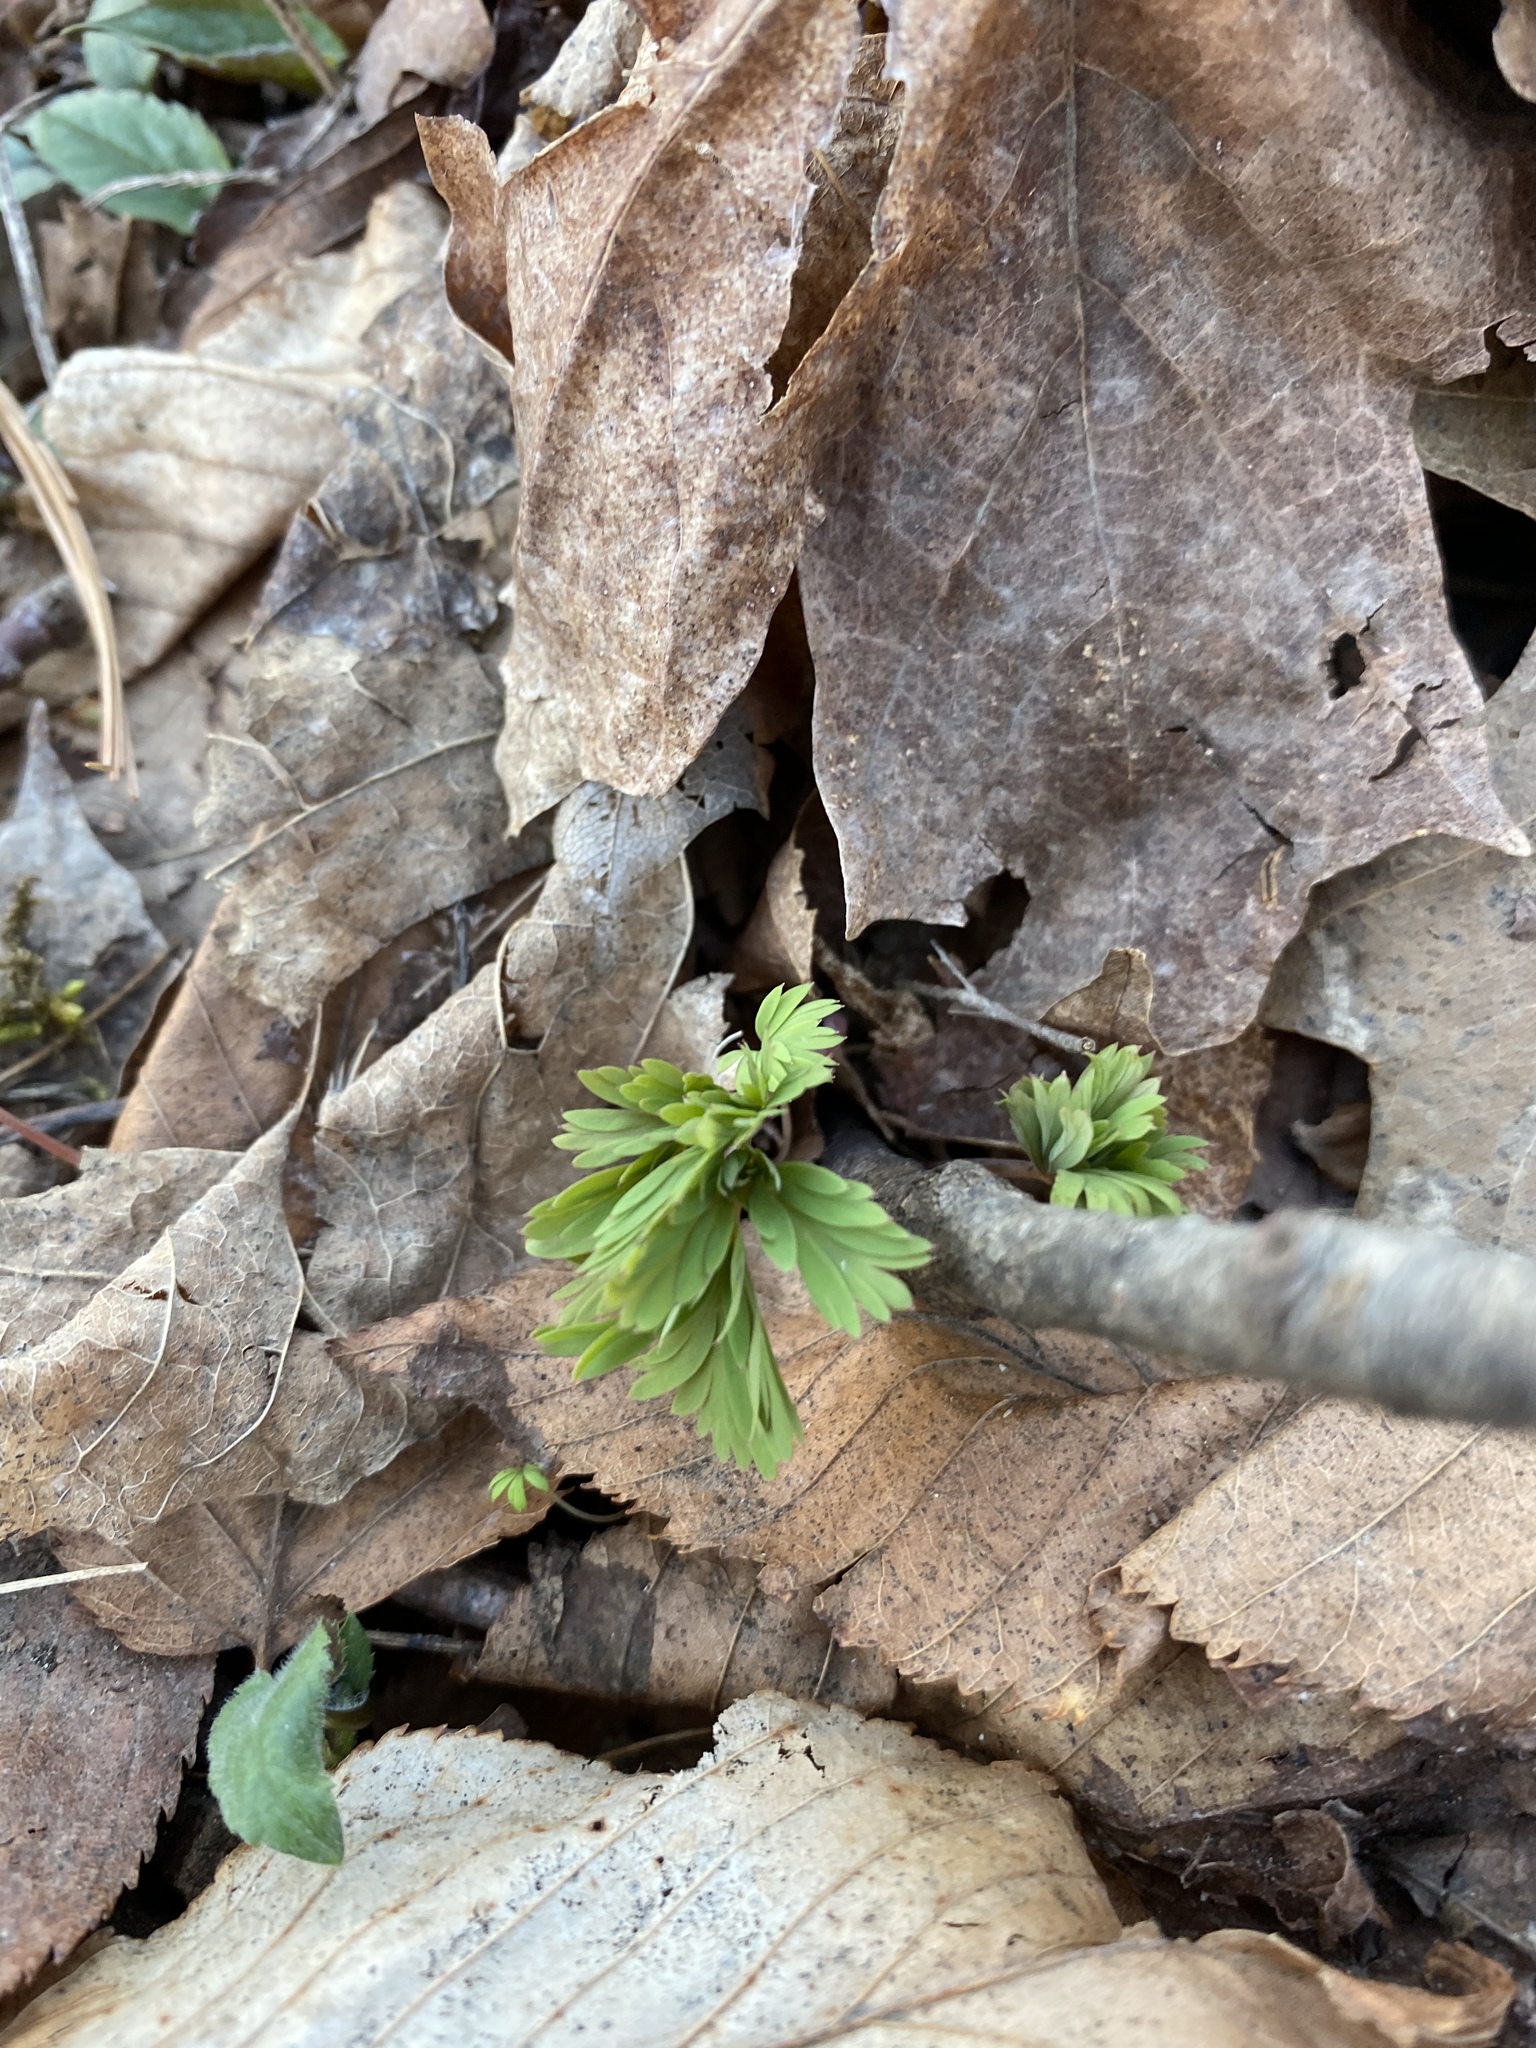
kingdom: Plantae
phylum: Tracheophyta
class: Magnoliopsida
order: Ranunculales
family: Papaveraceae
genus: Dicentra
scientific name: Dicentra cucullaria
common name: Dutchman's breeches
